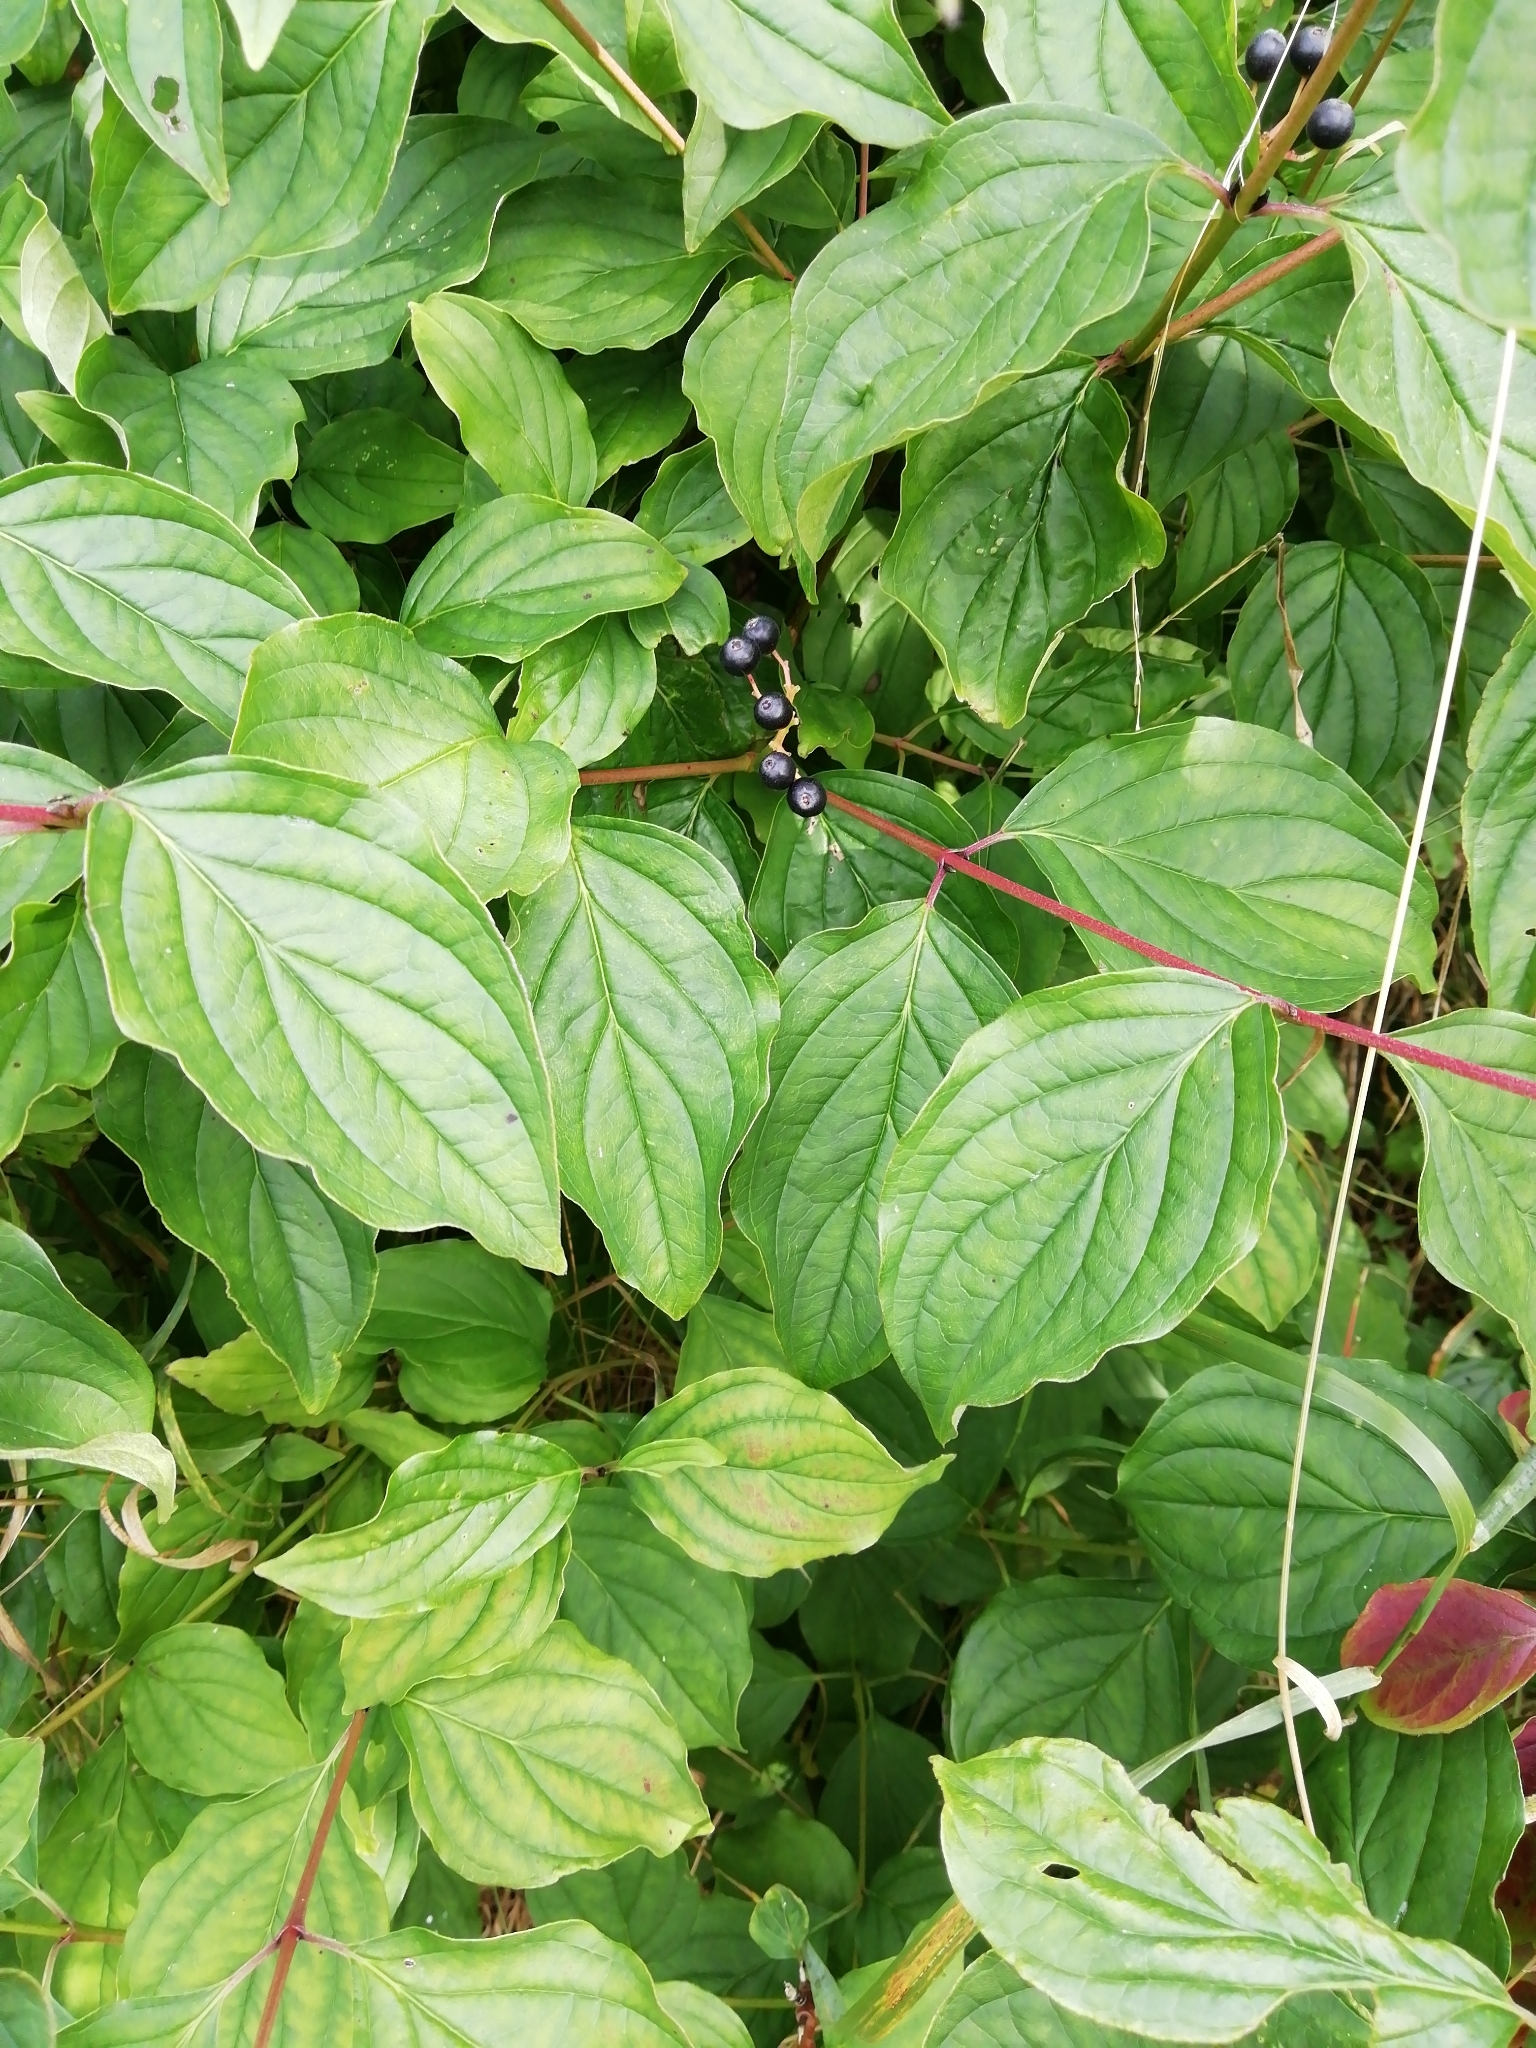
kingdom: Plantae
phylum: Tracheophyta
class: Magnoliopsida
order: Cornales
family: Cornaceae
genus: Cornus
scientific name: Cornus sanguinea
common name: Dogwood
